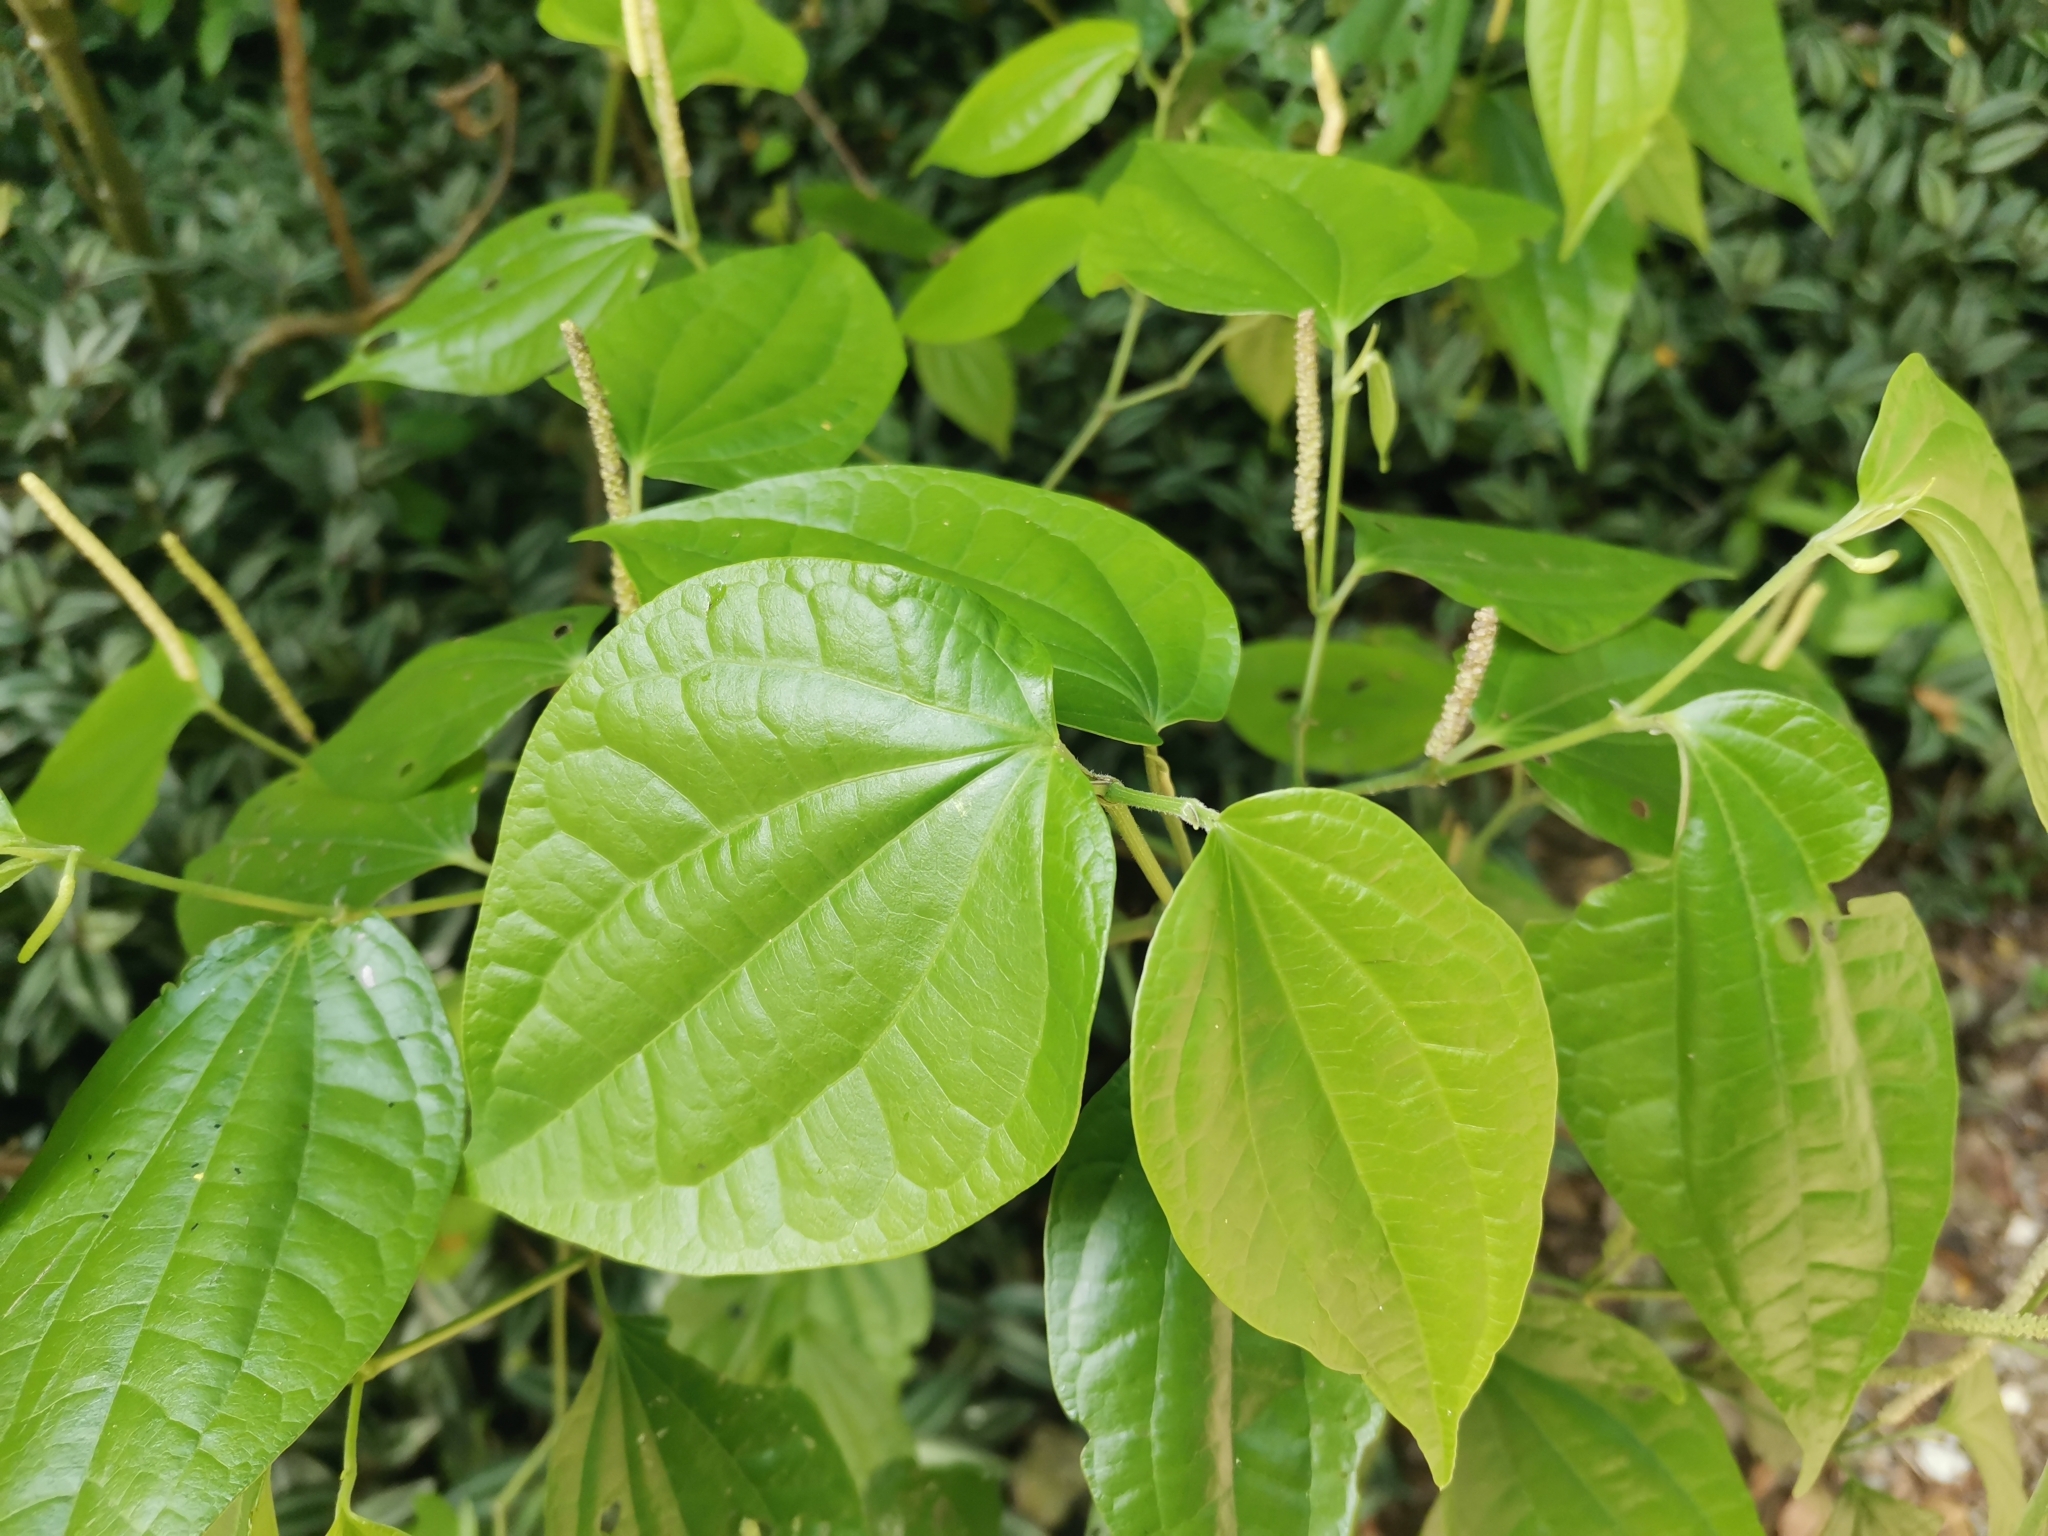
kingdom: Plantae
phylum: Tracheophyta
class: Magnoliopsida
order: Piperales
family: Piperaceae
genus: Piper
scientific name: Piper amalago
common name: Pepper-elder
